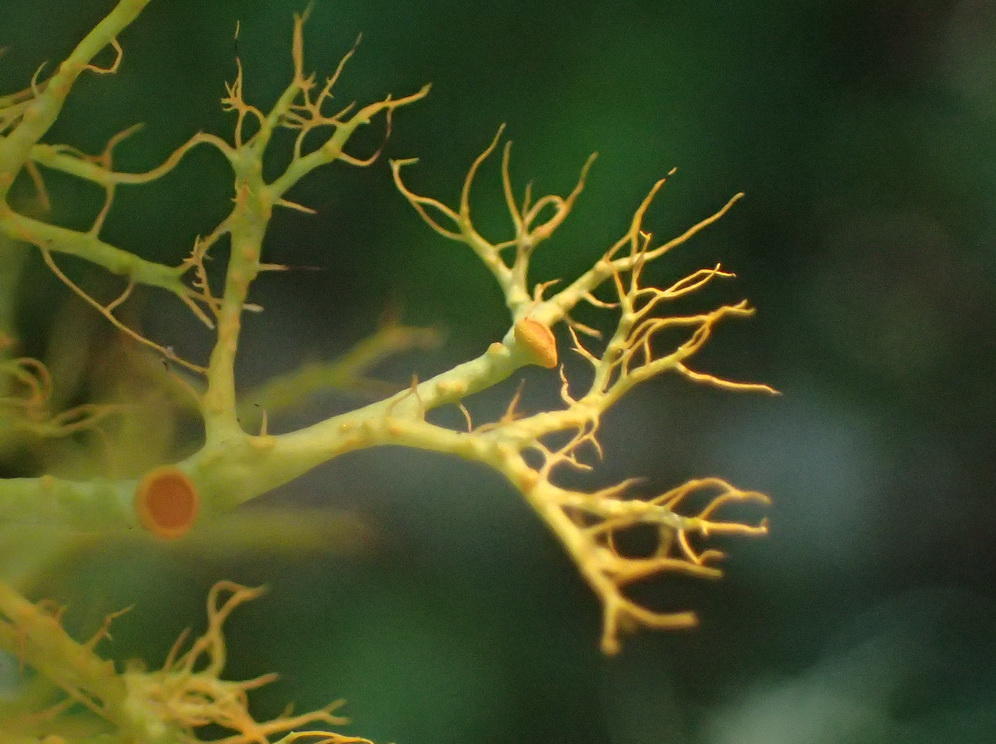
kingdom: Fungi
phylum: Ascomycota
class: Lecanoromycetes
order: Teloschistales
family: Teloschistaceae
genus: Teloschistes
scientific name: Teloschistes inflatus
